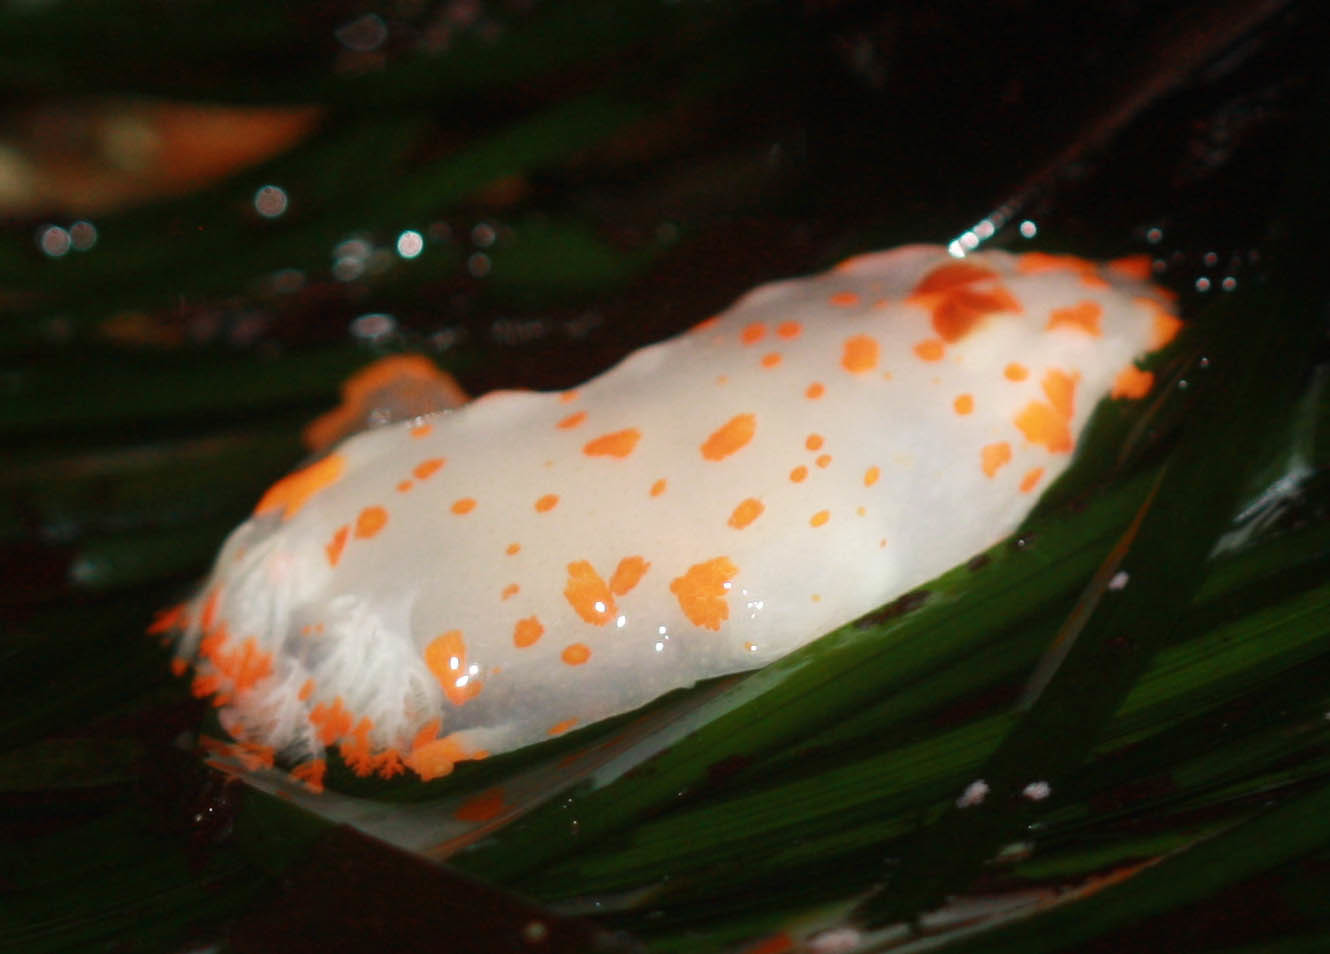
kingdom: Animalia
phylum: Mollusca
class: Gastropoda
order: Nudibranchia
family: Polyceridae
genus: Triopha
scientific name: Triopha catalinae
